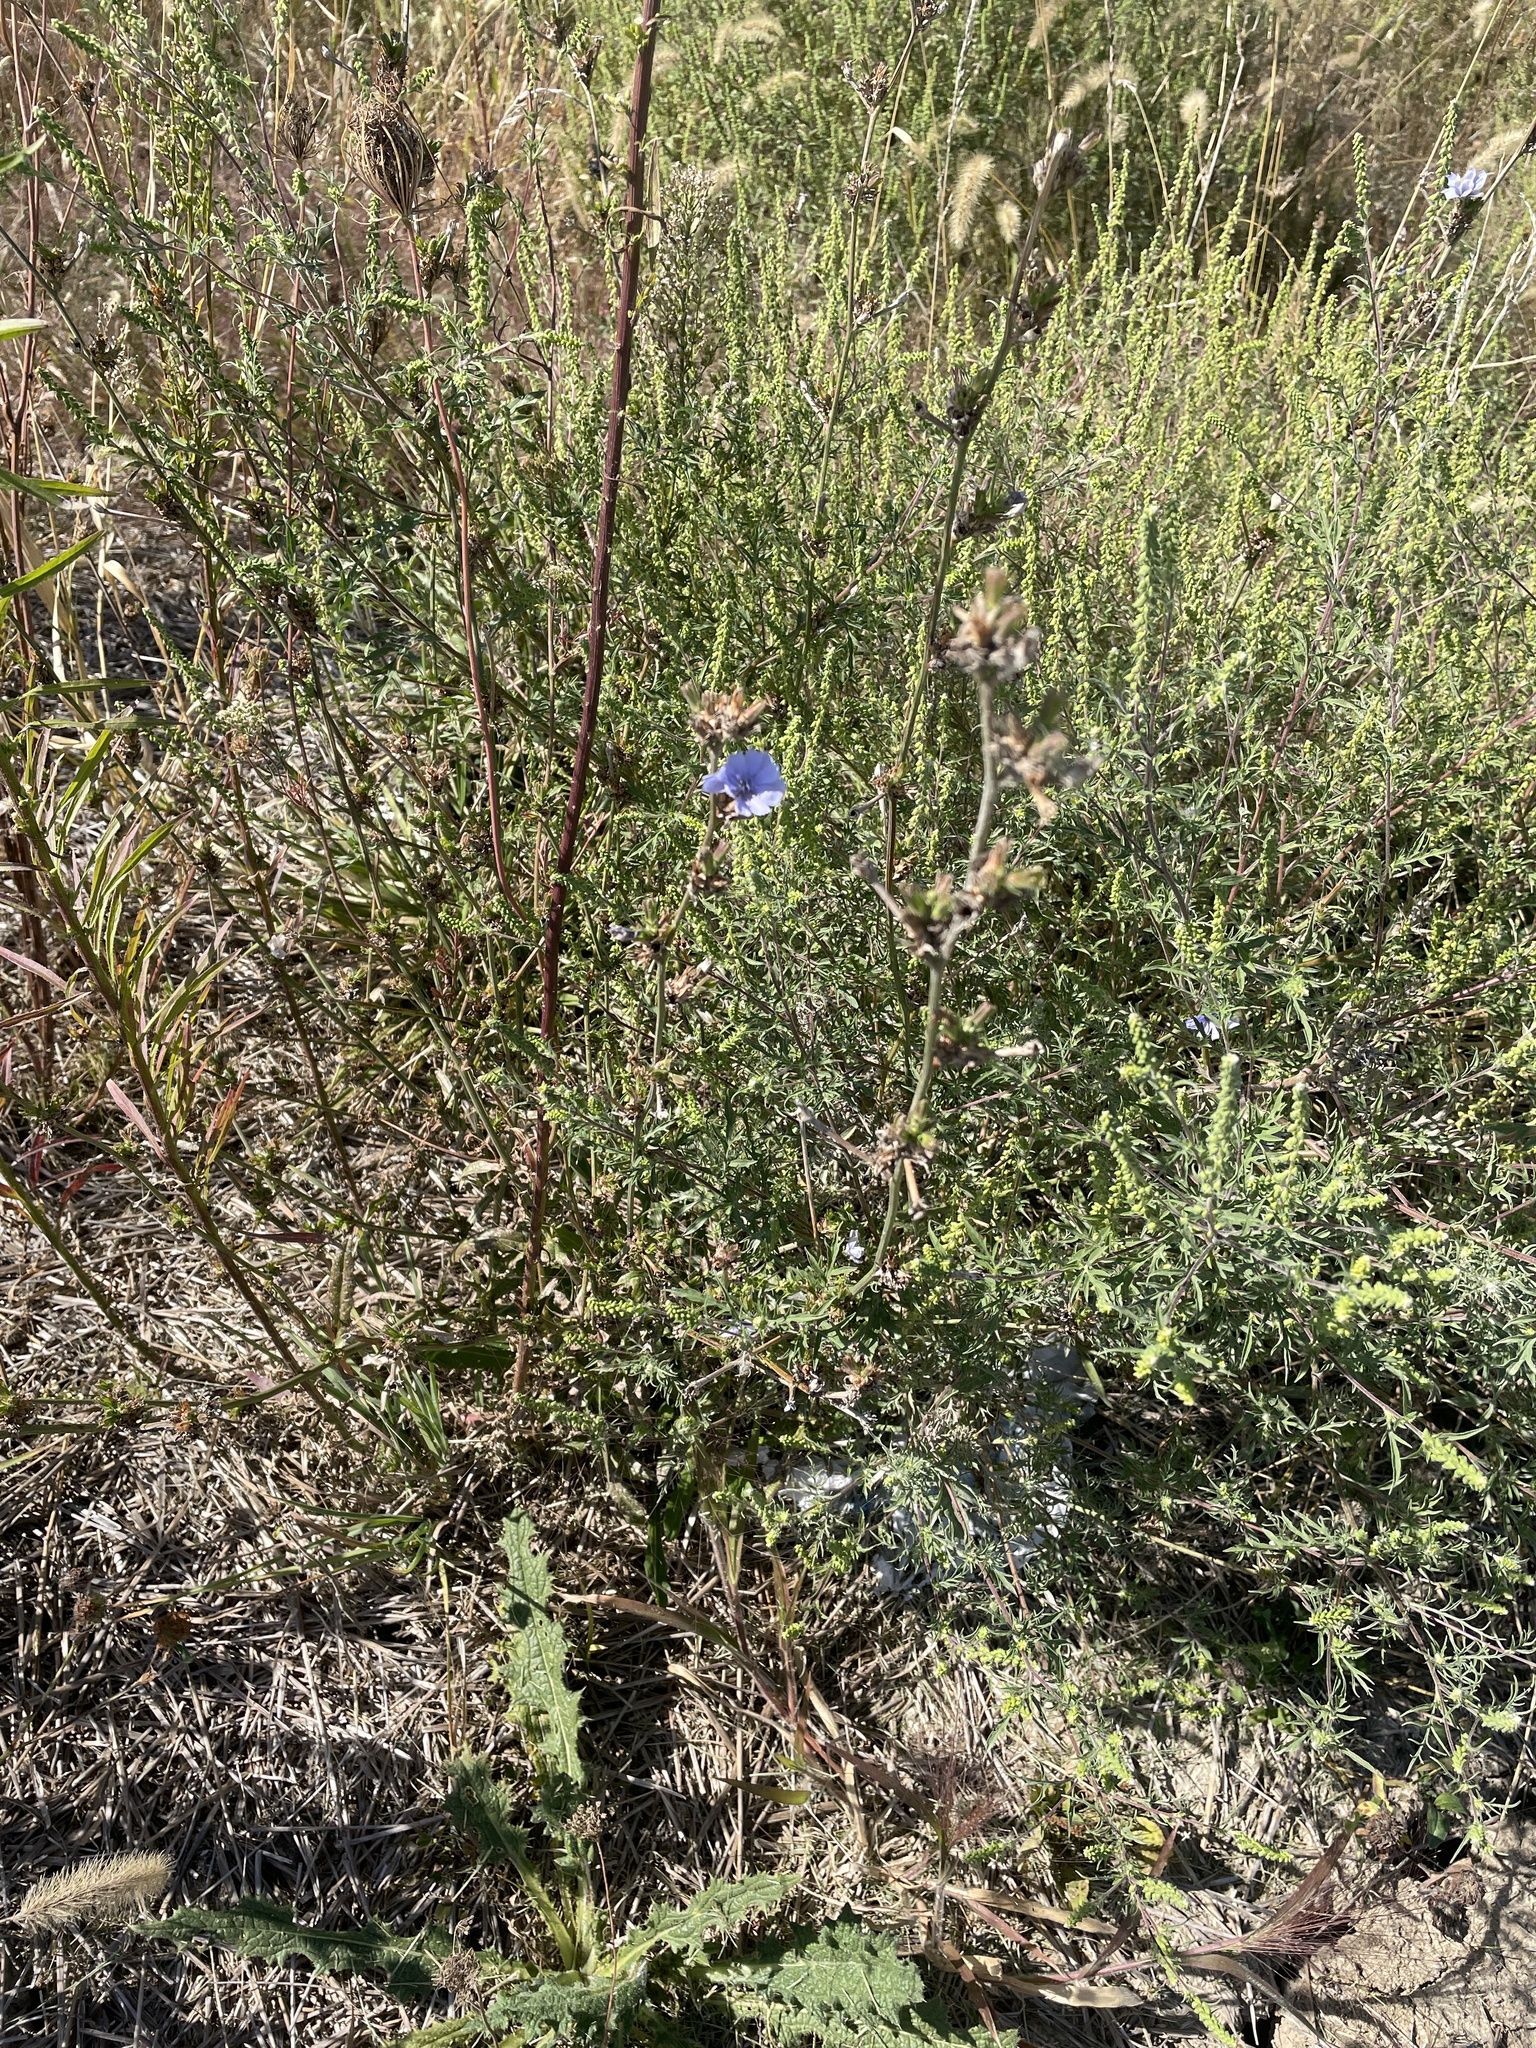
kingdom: Plantae
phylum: Tracheophyta
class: Magnoliopsida
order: Asterales
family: Asteraceae
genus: Cichorium
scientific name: Cichorium intybus
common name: Chicory
